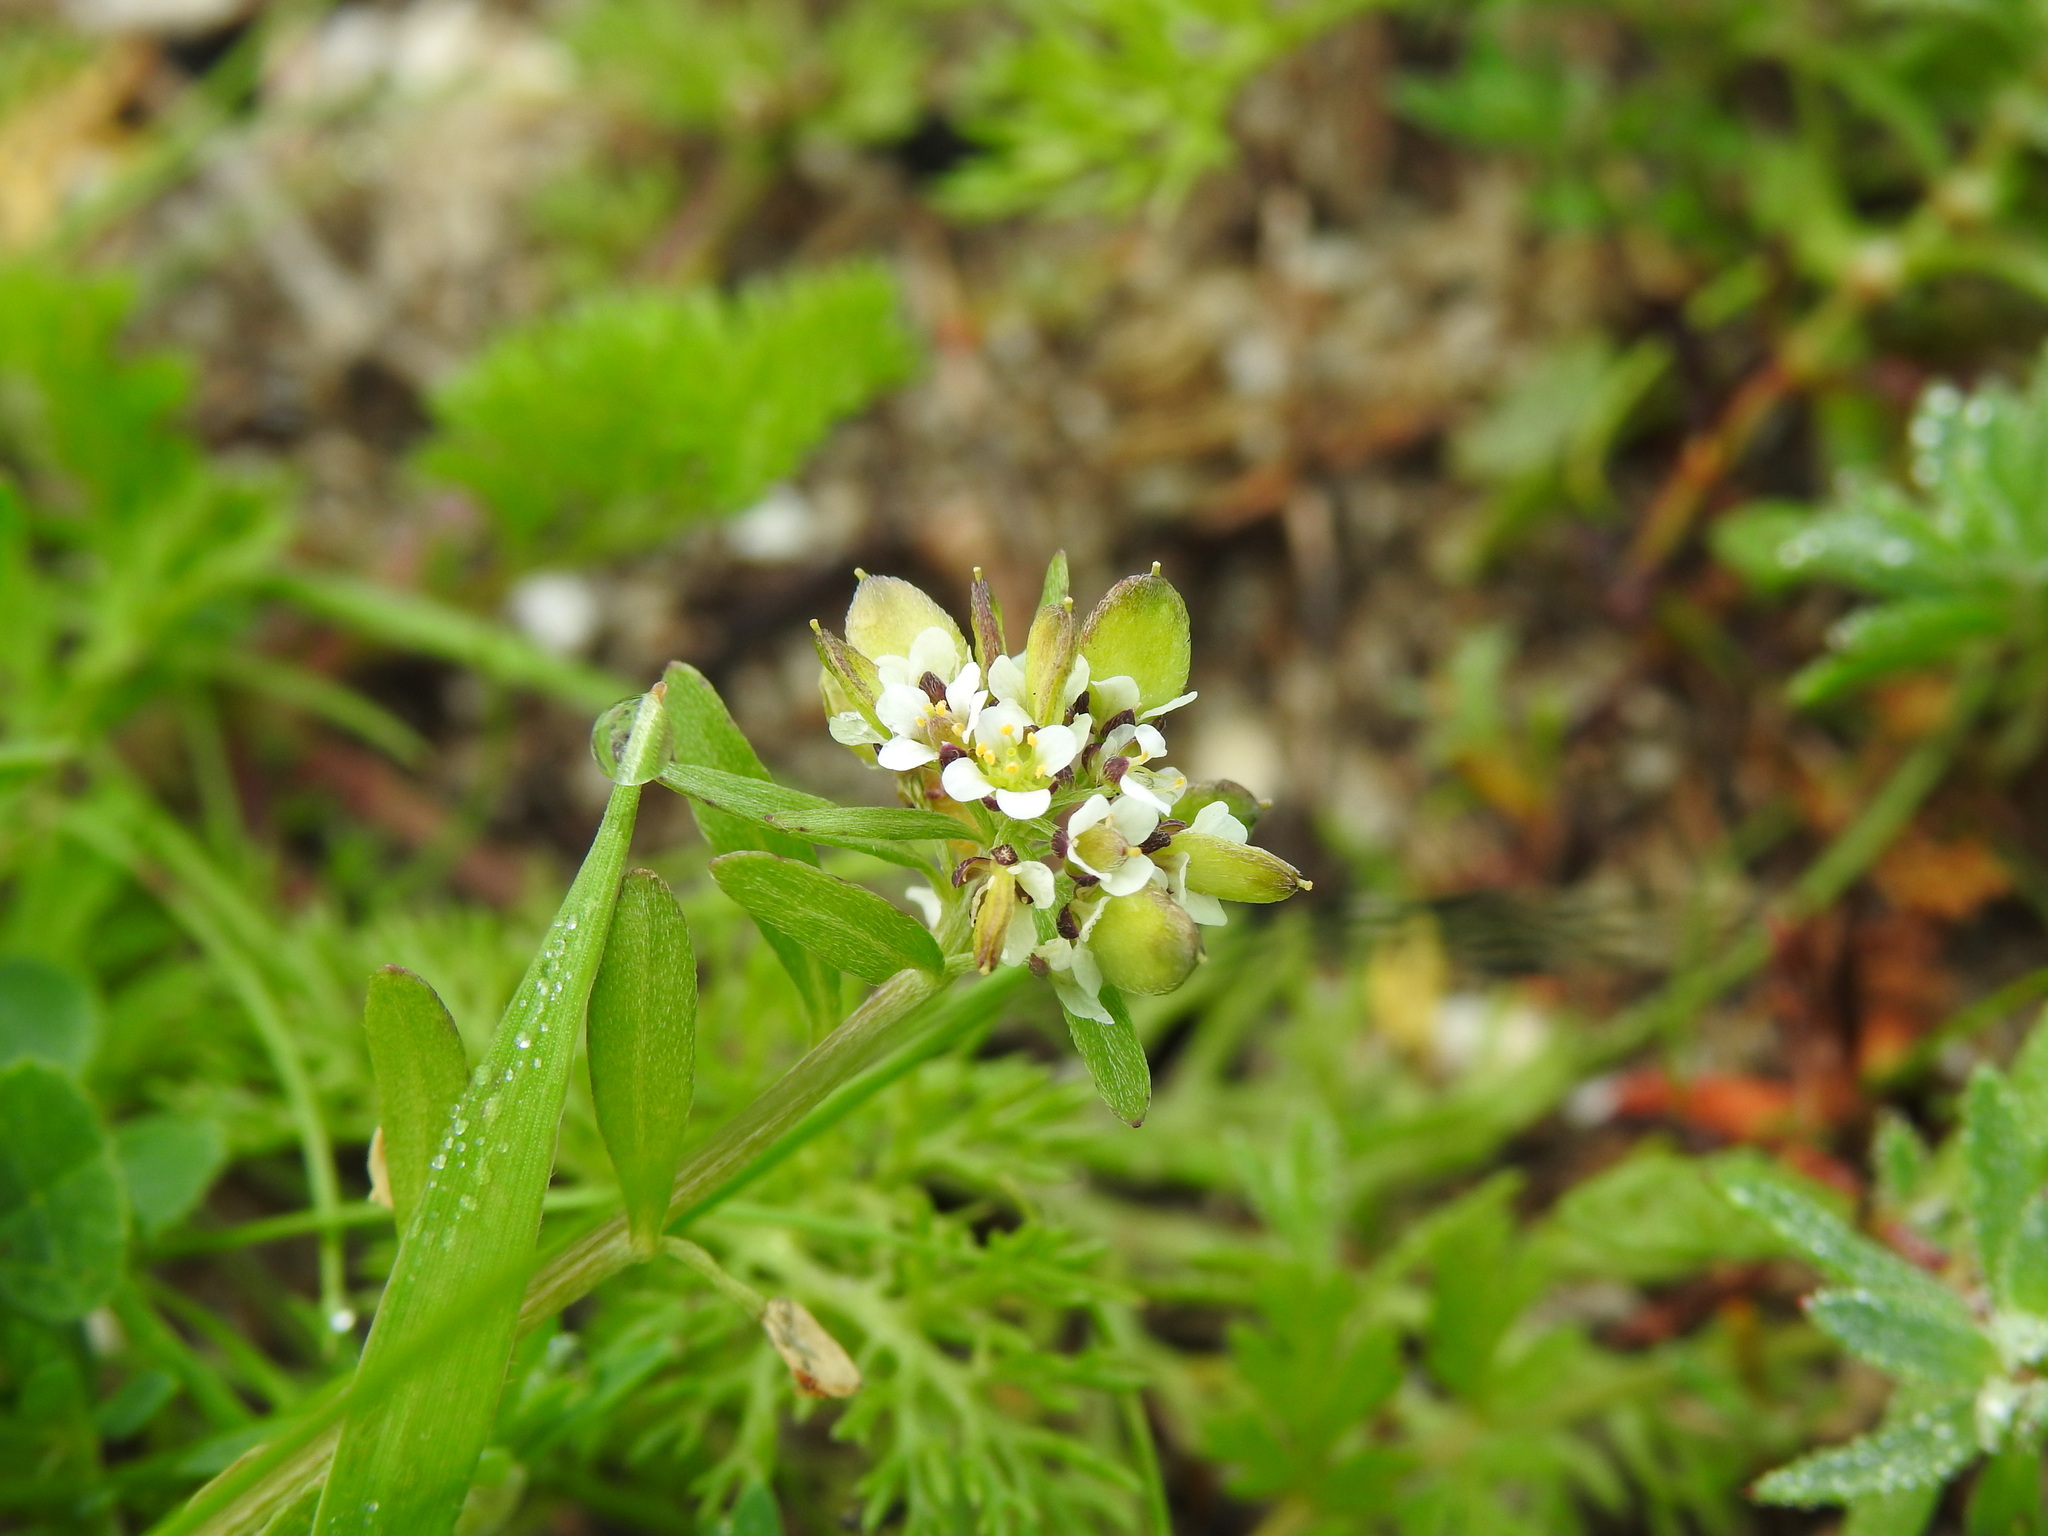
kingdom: Plantae
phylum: Tracheophyta
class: Magnoliopsida
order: Brassicales
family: Brassicaceae
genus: Lobularia
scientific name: Lobularia libyca
